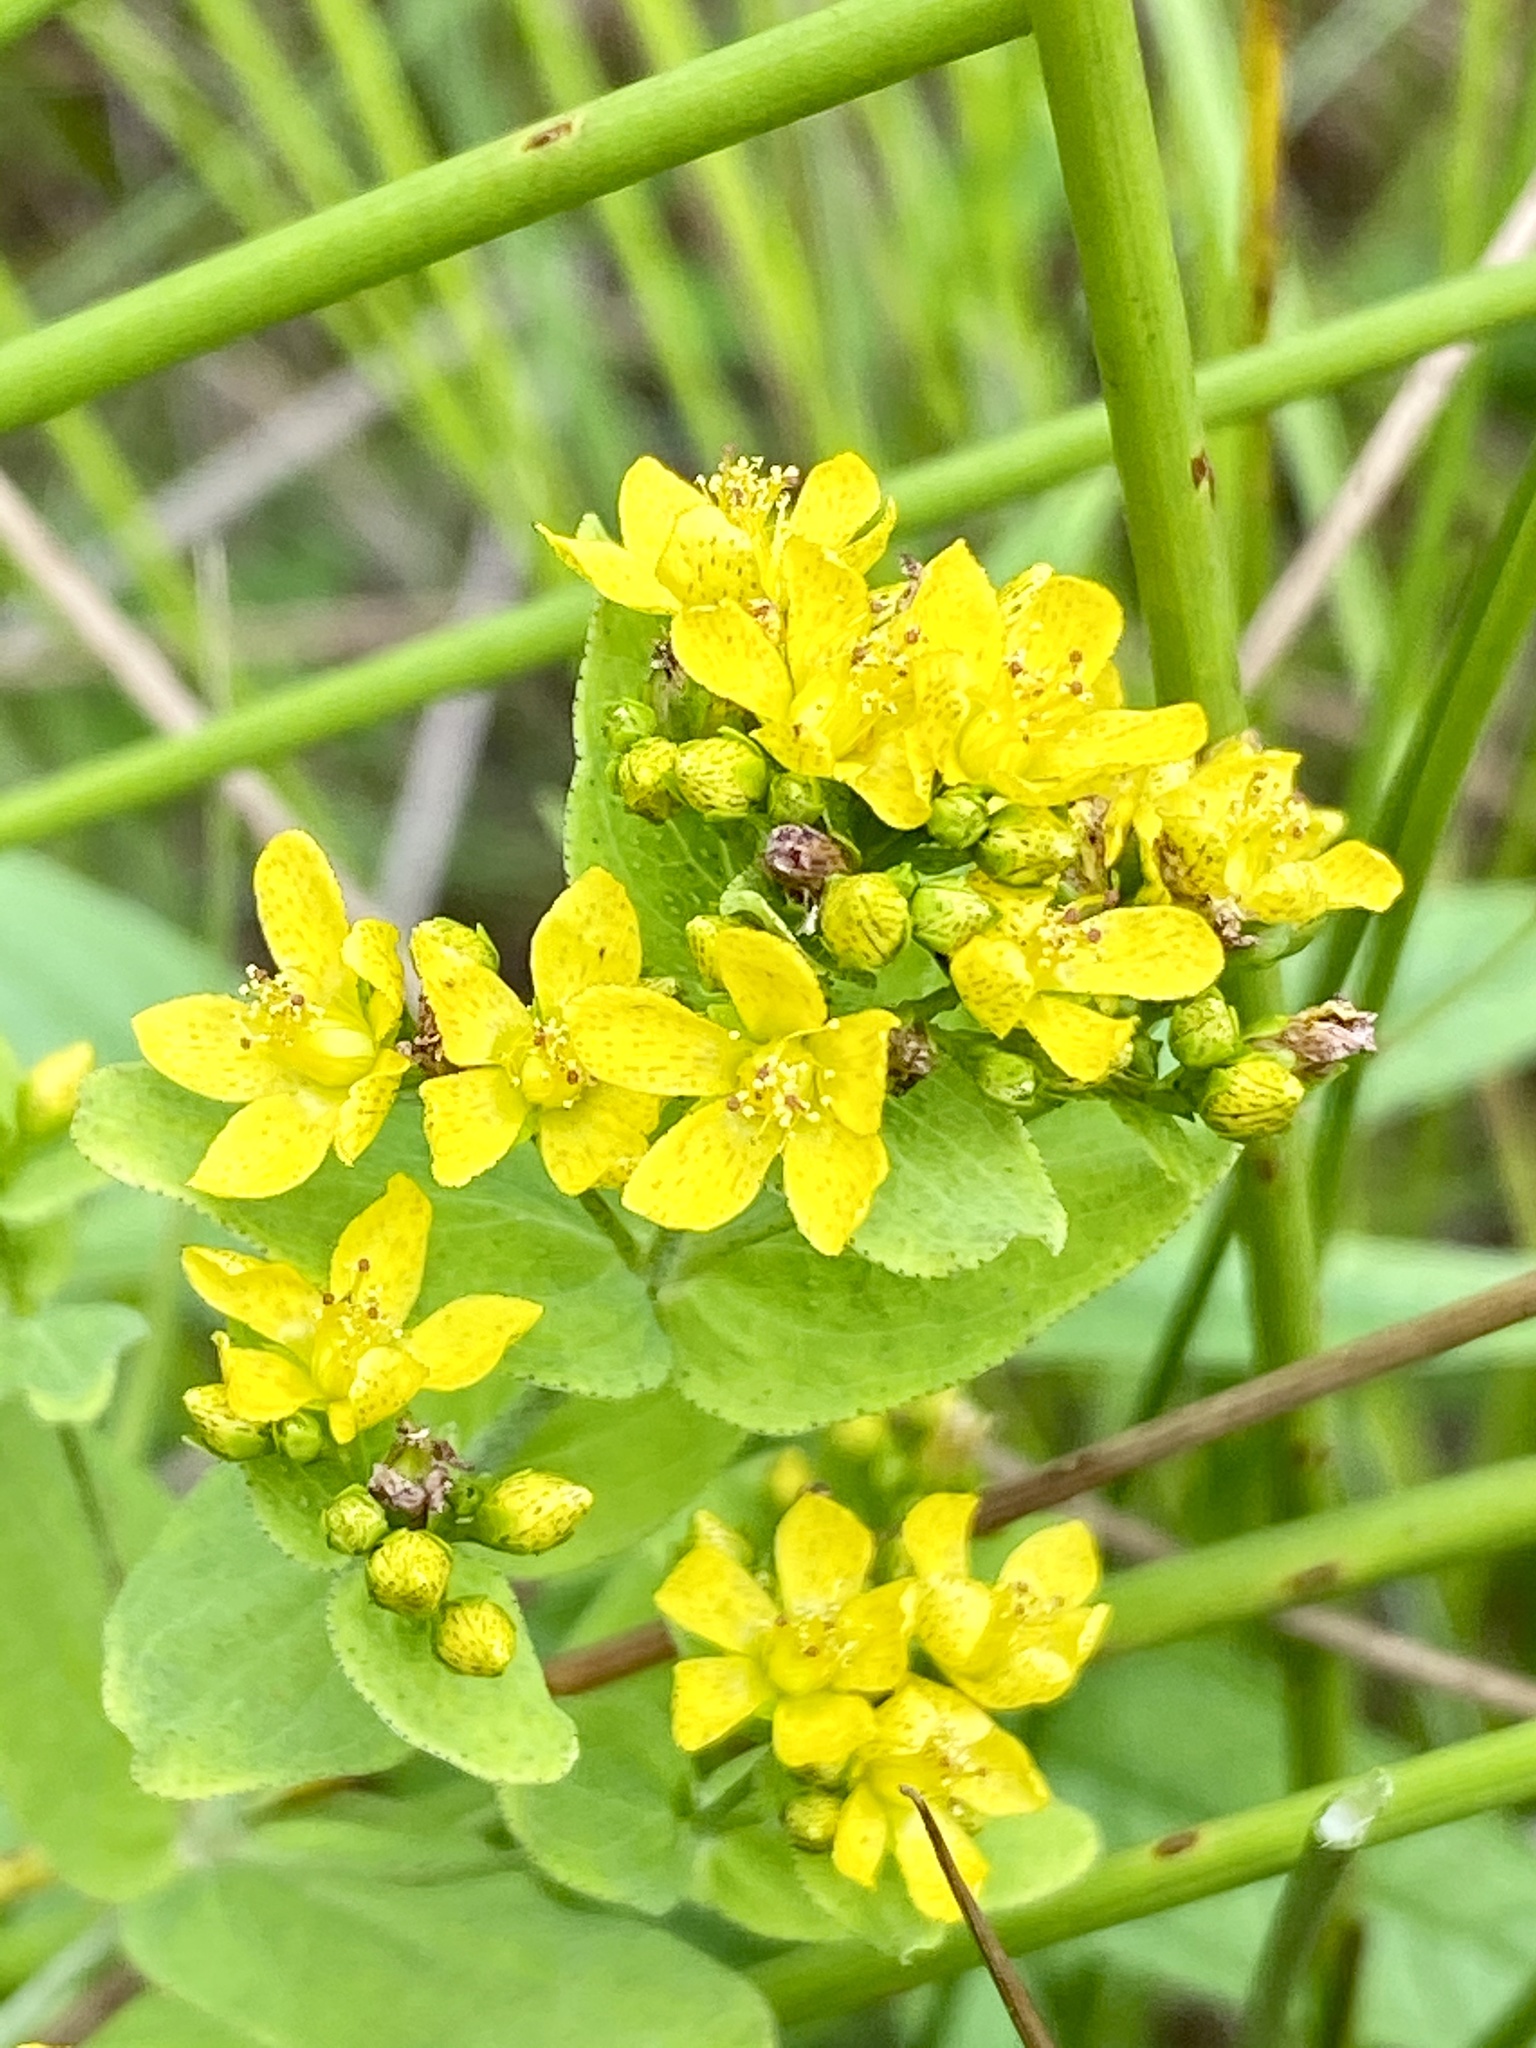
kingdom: Plantae
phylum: Tracheophyta
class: Magnoliopsida
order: Malpighiales
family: Hypericaceae
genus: Hypericum
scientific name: Hypericum punctatum
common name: Spotted st. john's-wort
